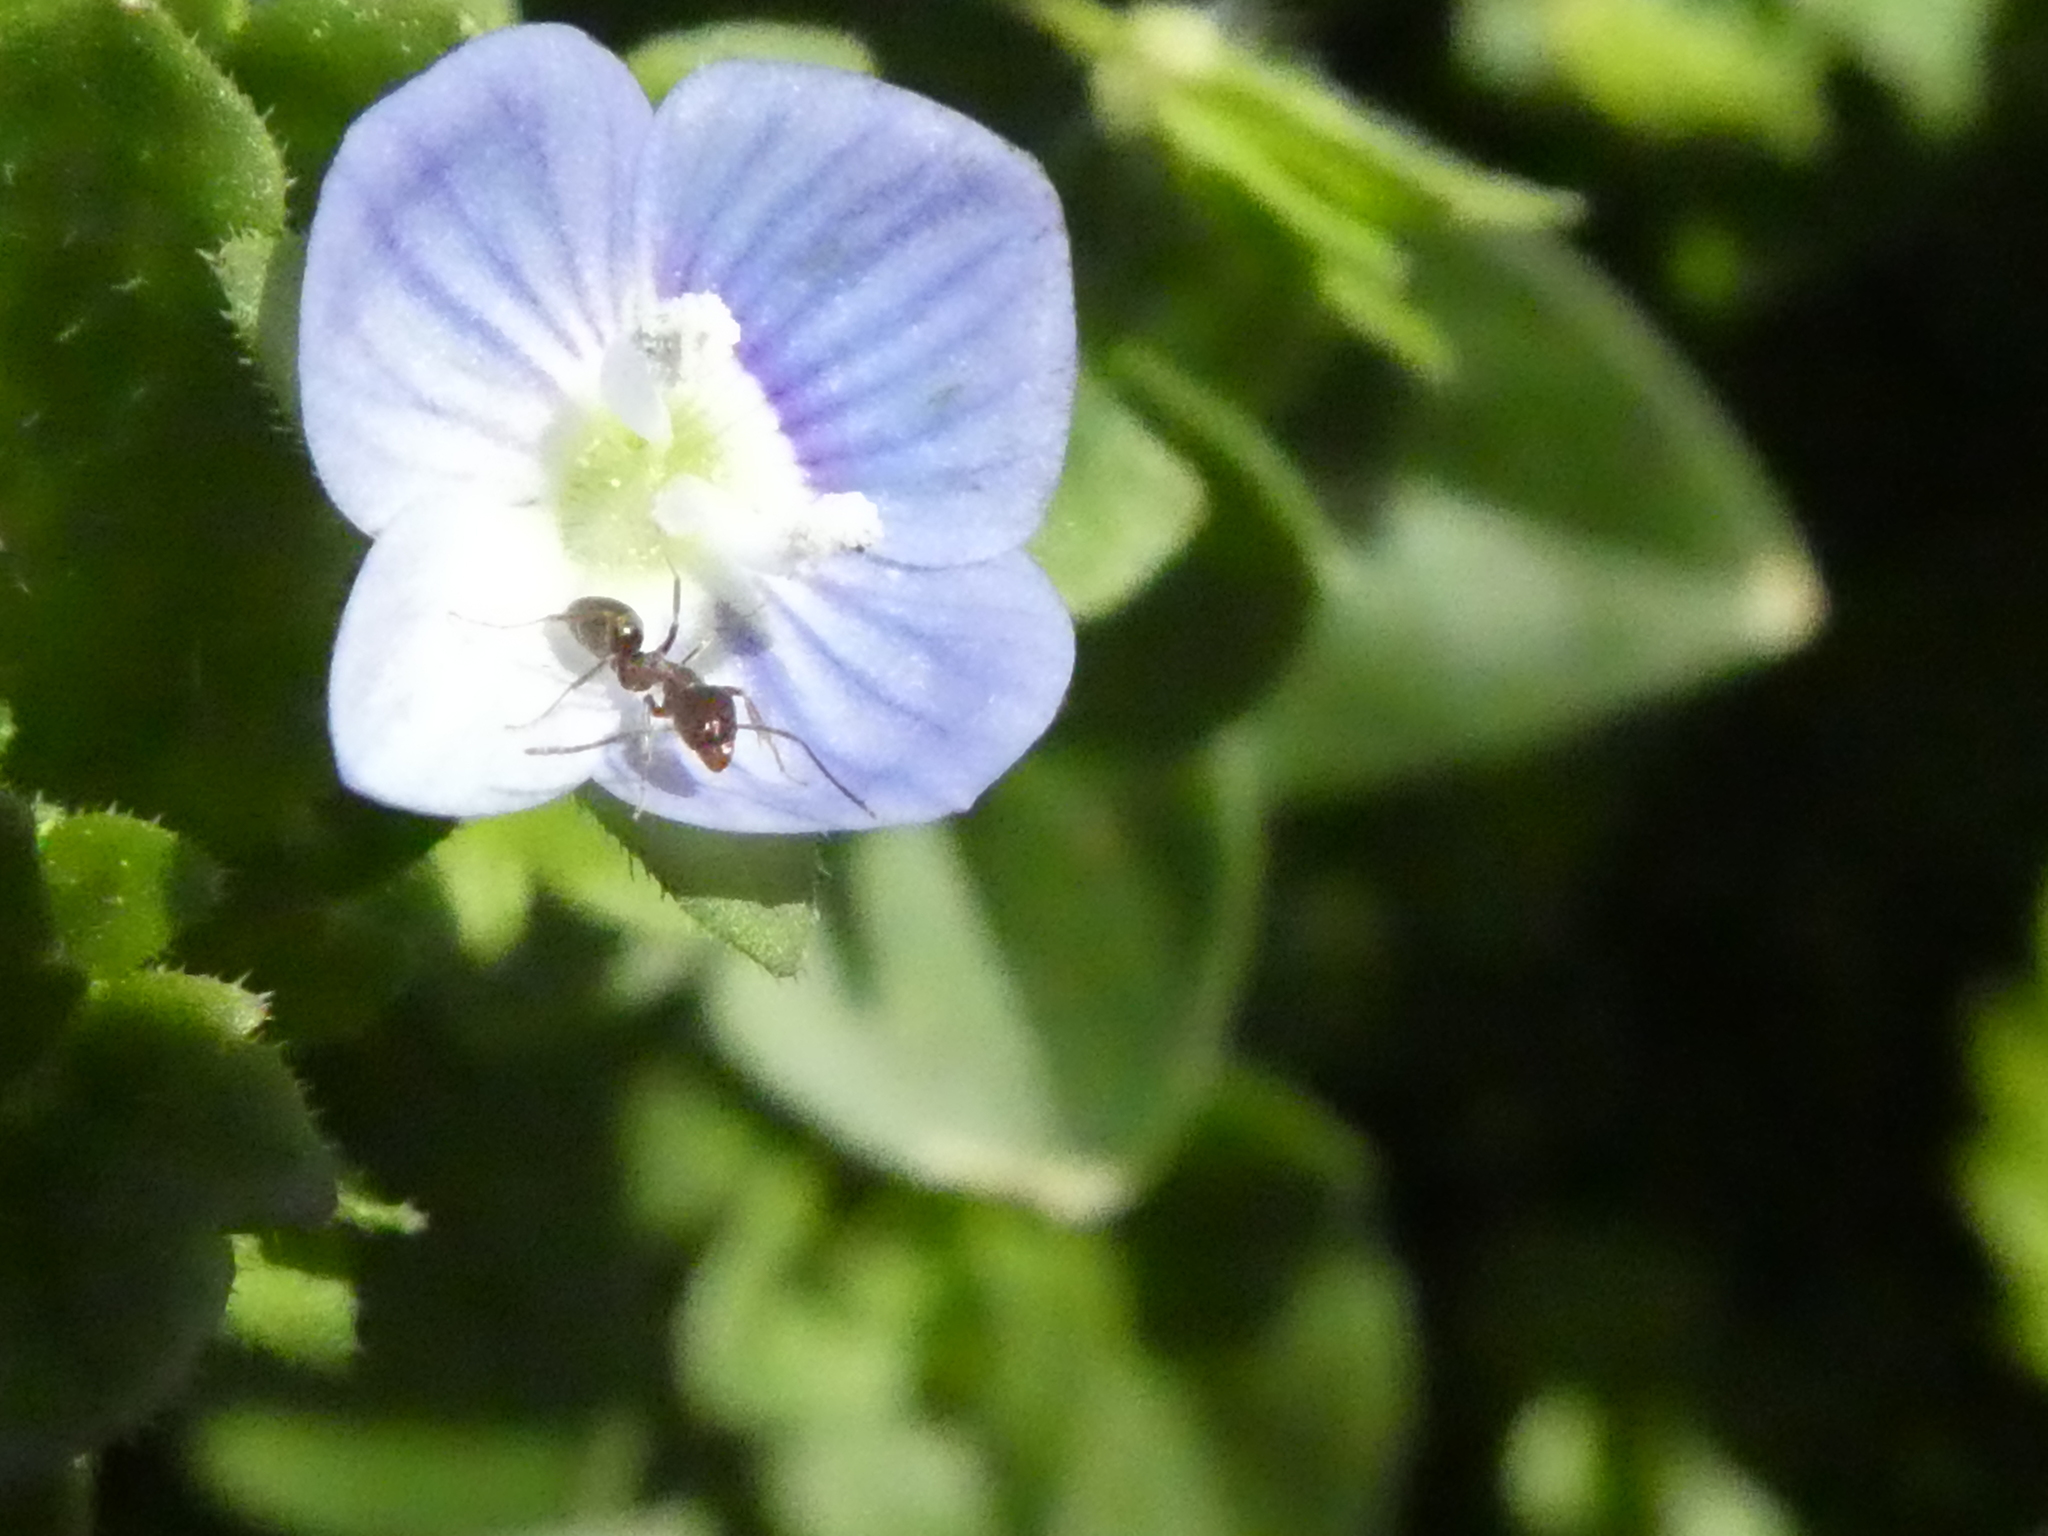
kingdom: Animalia
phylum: Arthropoda
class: Insecta
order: Hymenoptera
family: Formicidae
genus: Linepithema
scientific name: Linepithema humile
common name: Argentine ant
